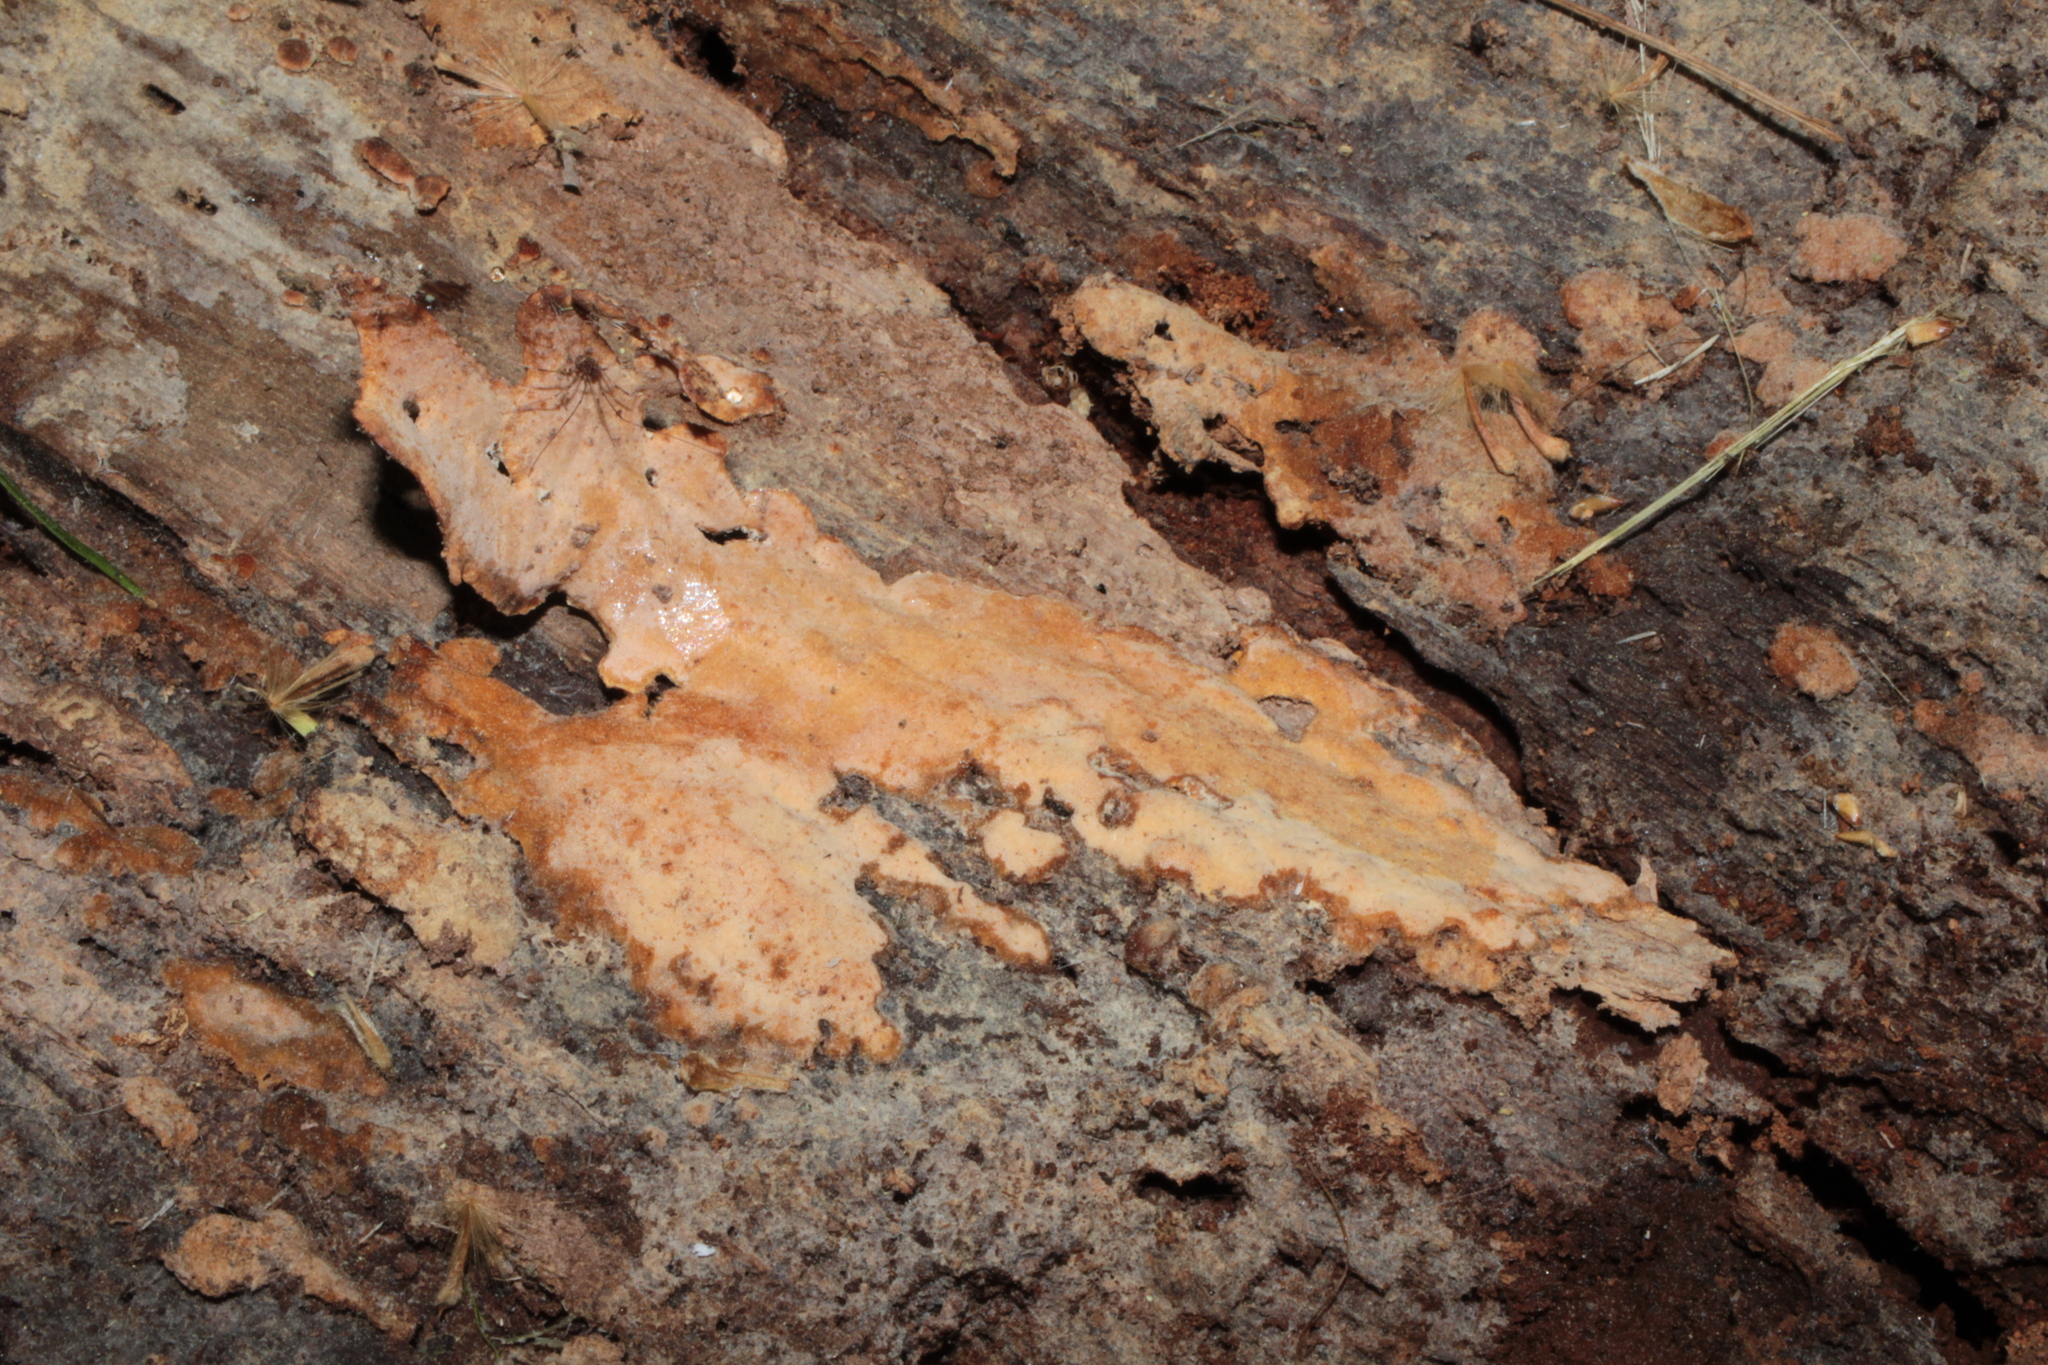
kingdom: Fungi
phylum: Basidiomycota
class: Agaricomycetes
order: Polyporales
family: Meripilaceae
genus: Rigidoporus
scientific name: Rigidoporus crocatus
